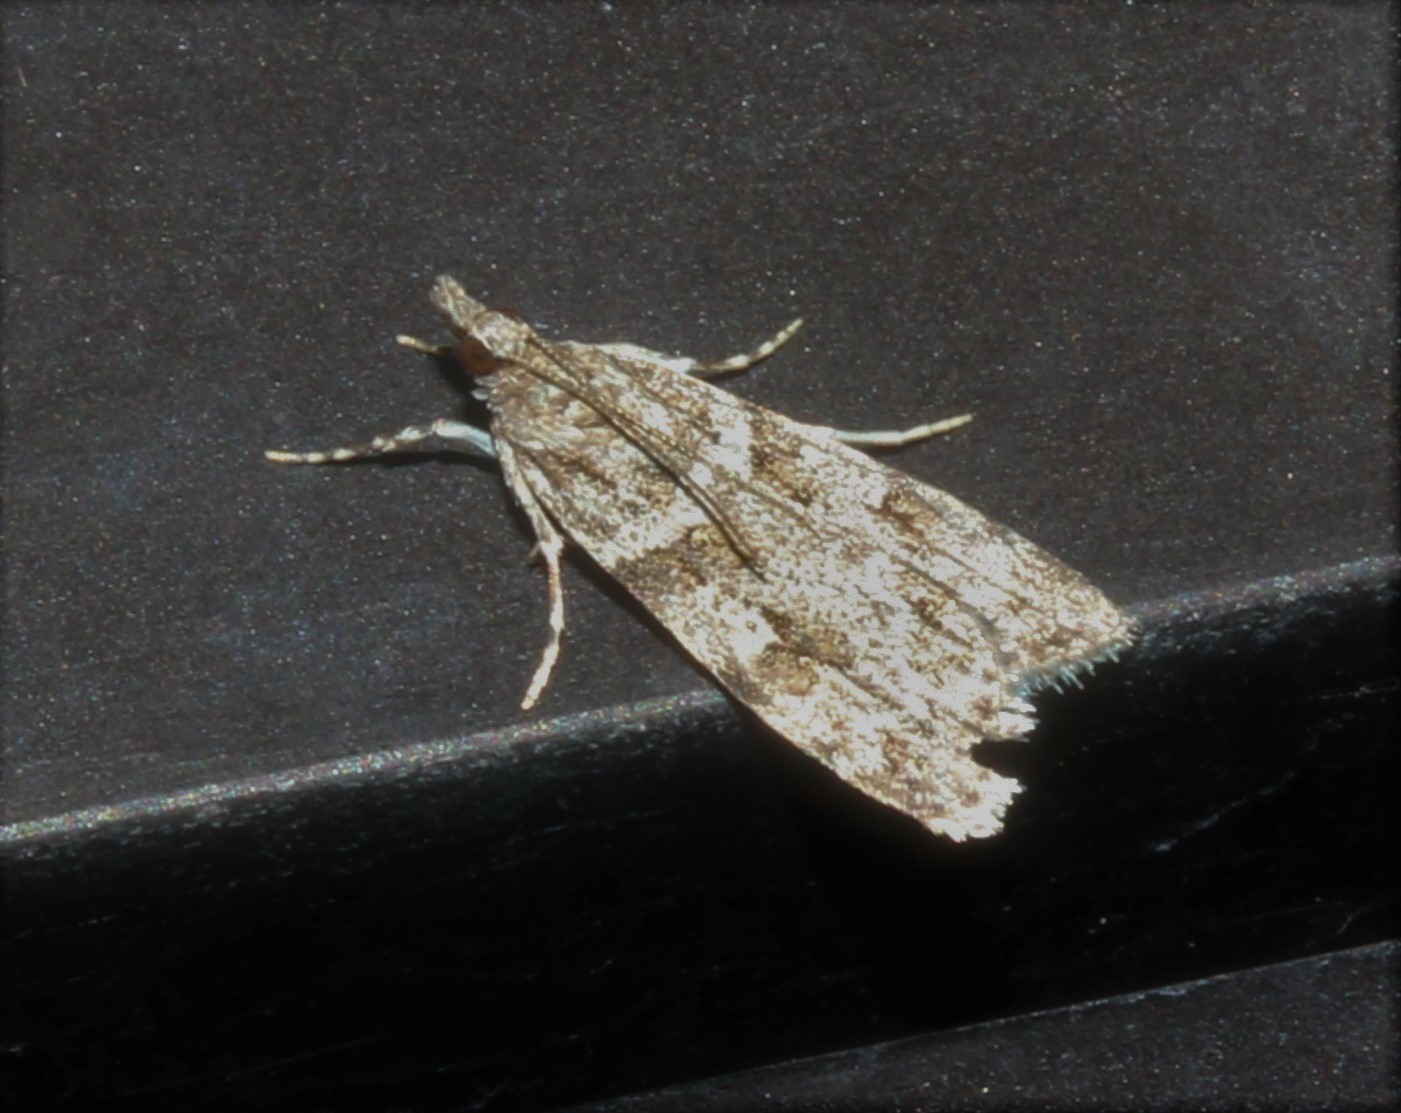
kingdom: Animalia
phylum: Arthropoda
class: Insecta
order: Lepidoptera
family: Crambidae
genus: Scoparia
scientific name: Scoparia biplagialis
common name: Double-striped scoparia moth
